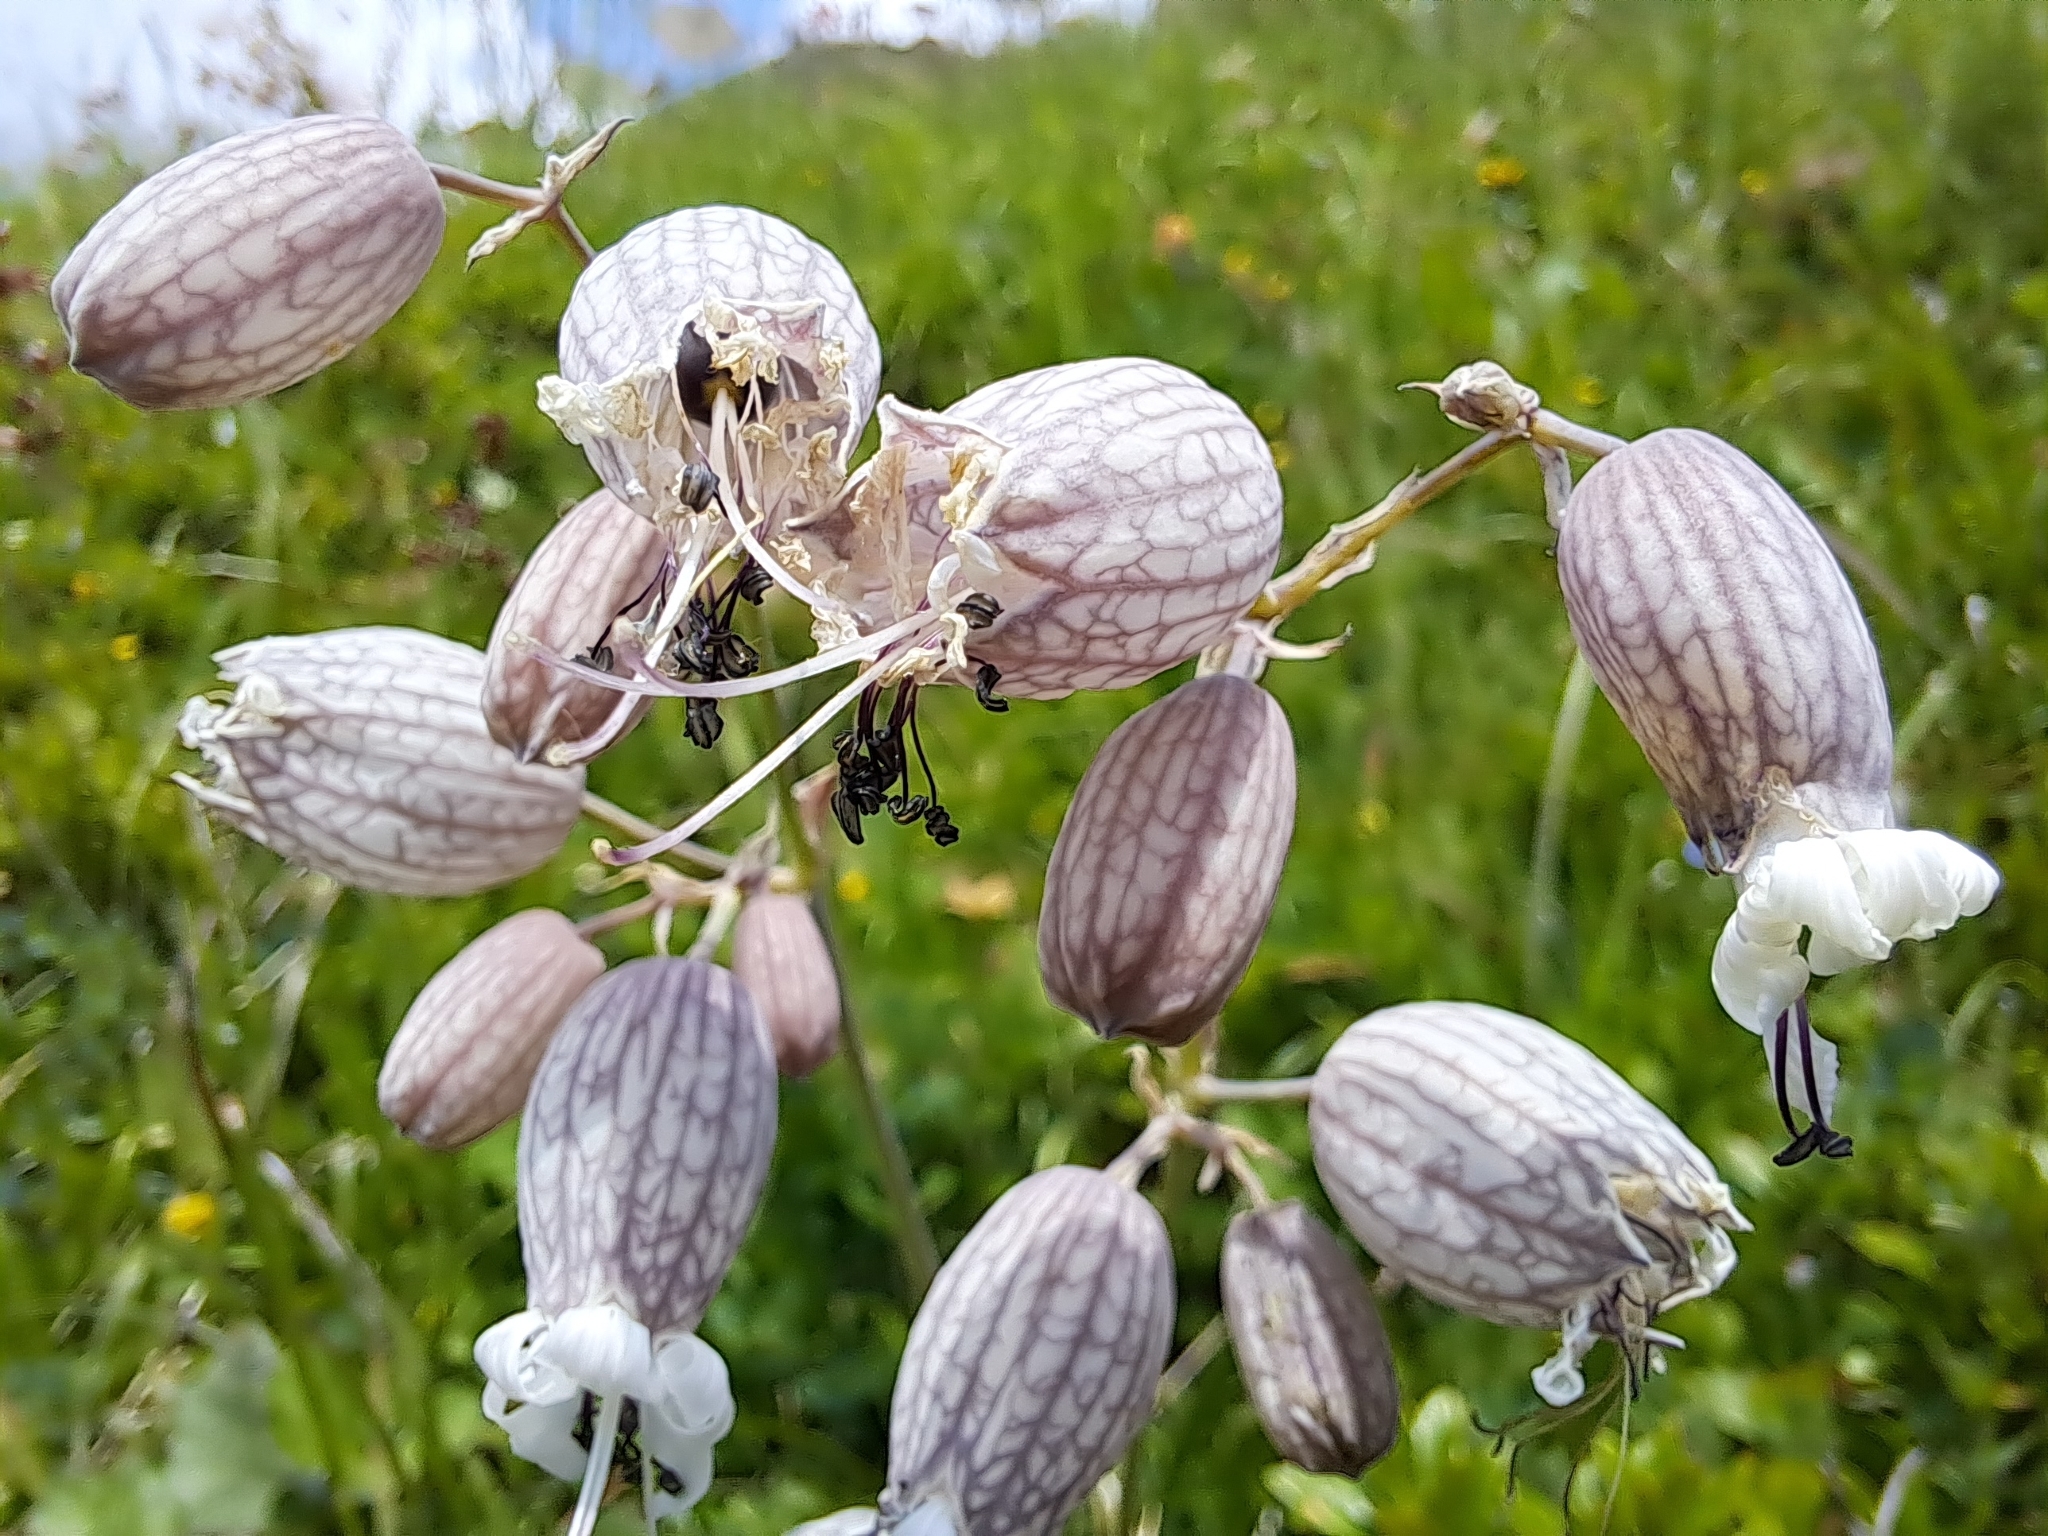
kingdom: Plantae
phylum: Tracheophyta
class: Magnoliopsida
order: Caryophyllales
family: Caryophyllaceae
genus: Silene
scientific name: Silene vulgaris
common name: Bladder campion
